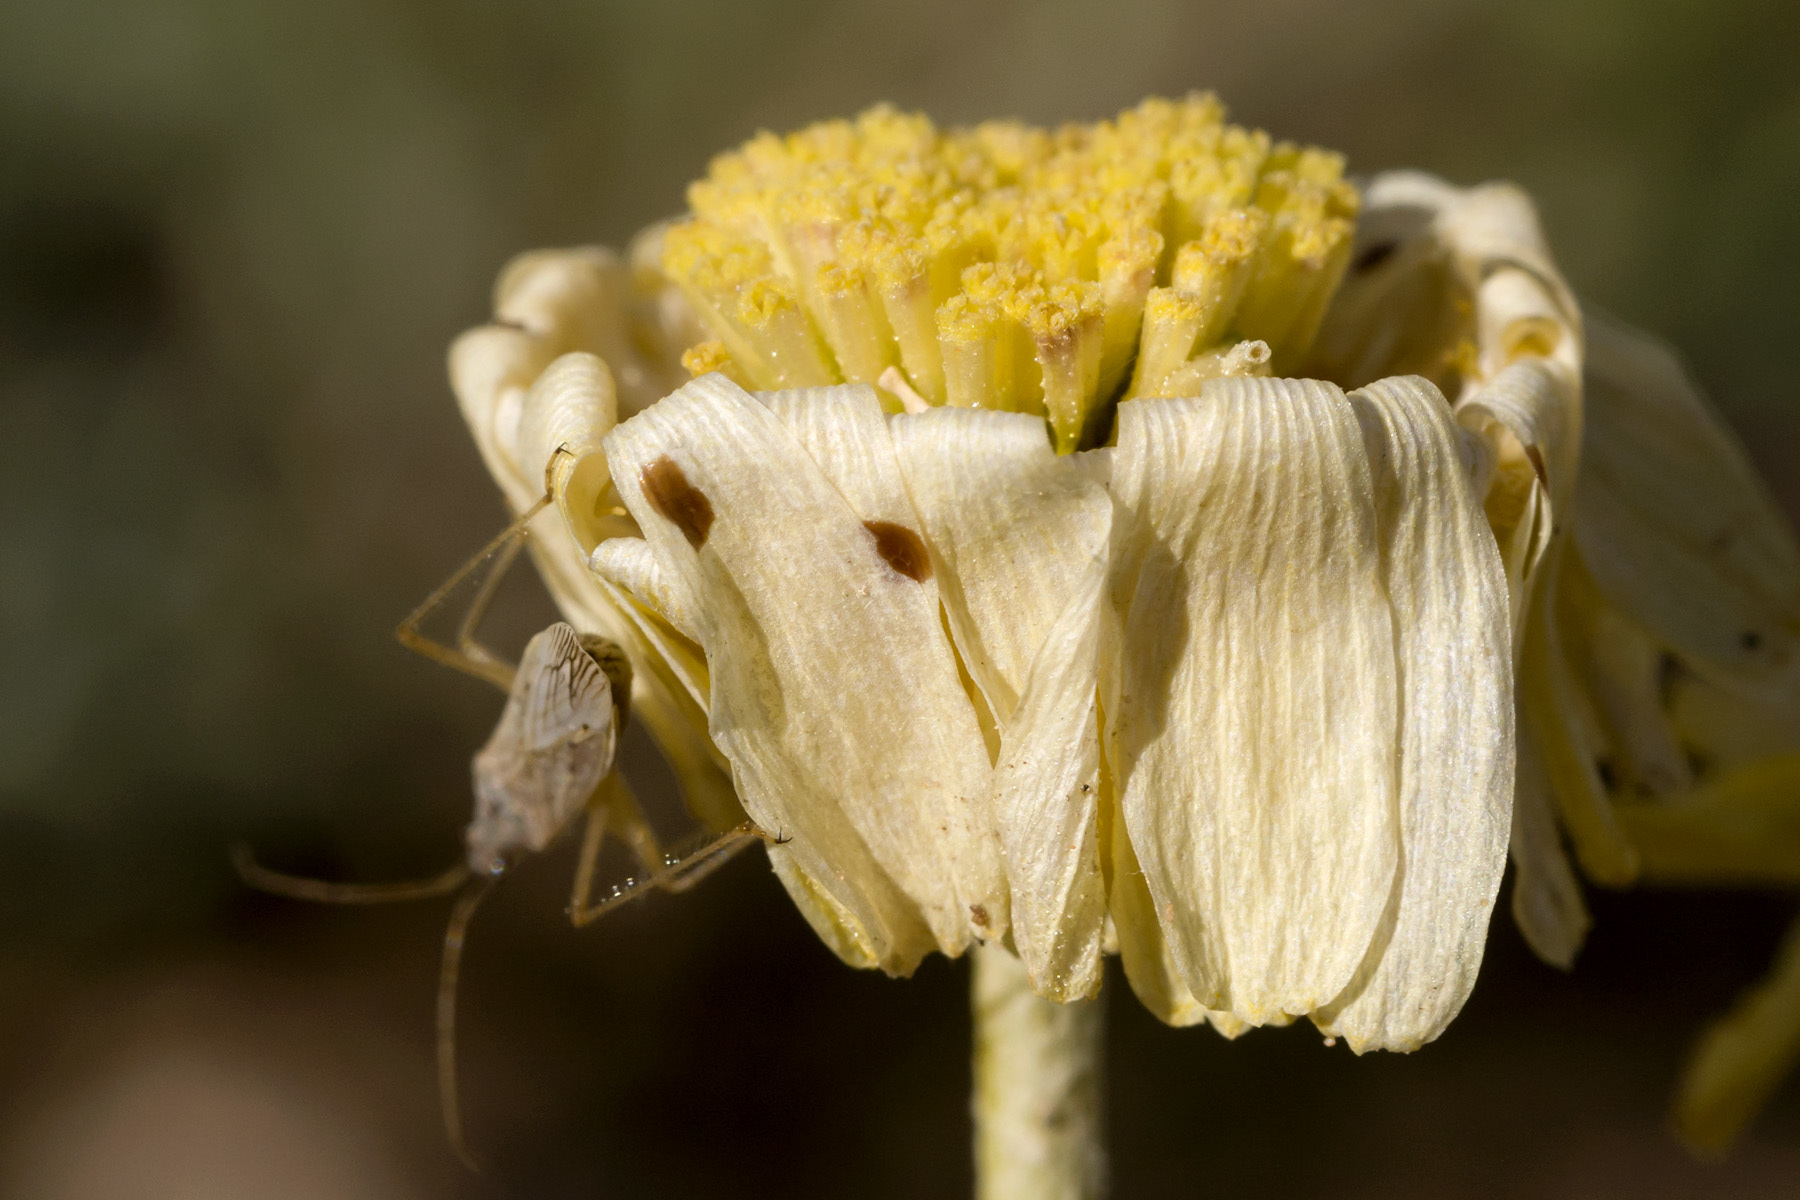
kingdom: Plantae
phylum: Tracheophyta
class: Magnoliopsida
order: Asterales
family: Asteraceae
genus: Baileya
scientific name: Baileya multiradiata
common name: Desert-marigold
